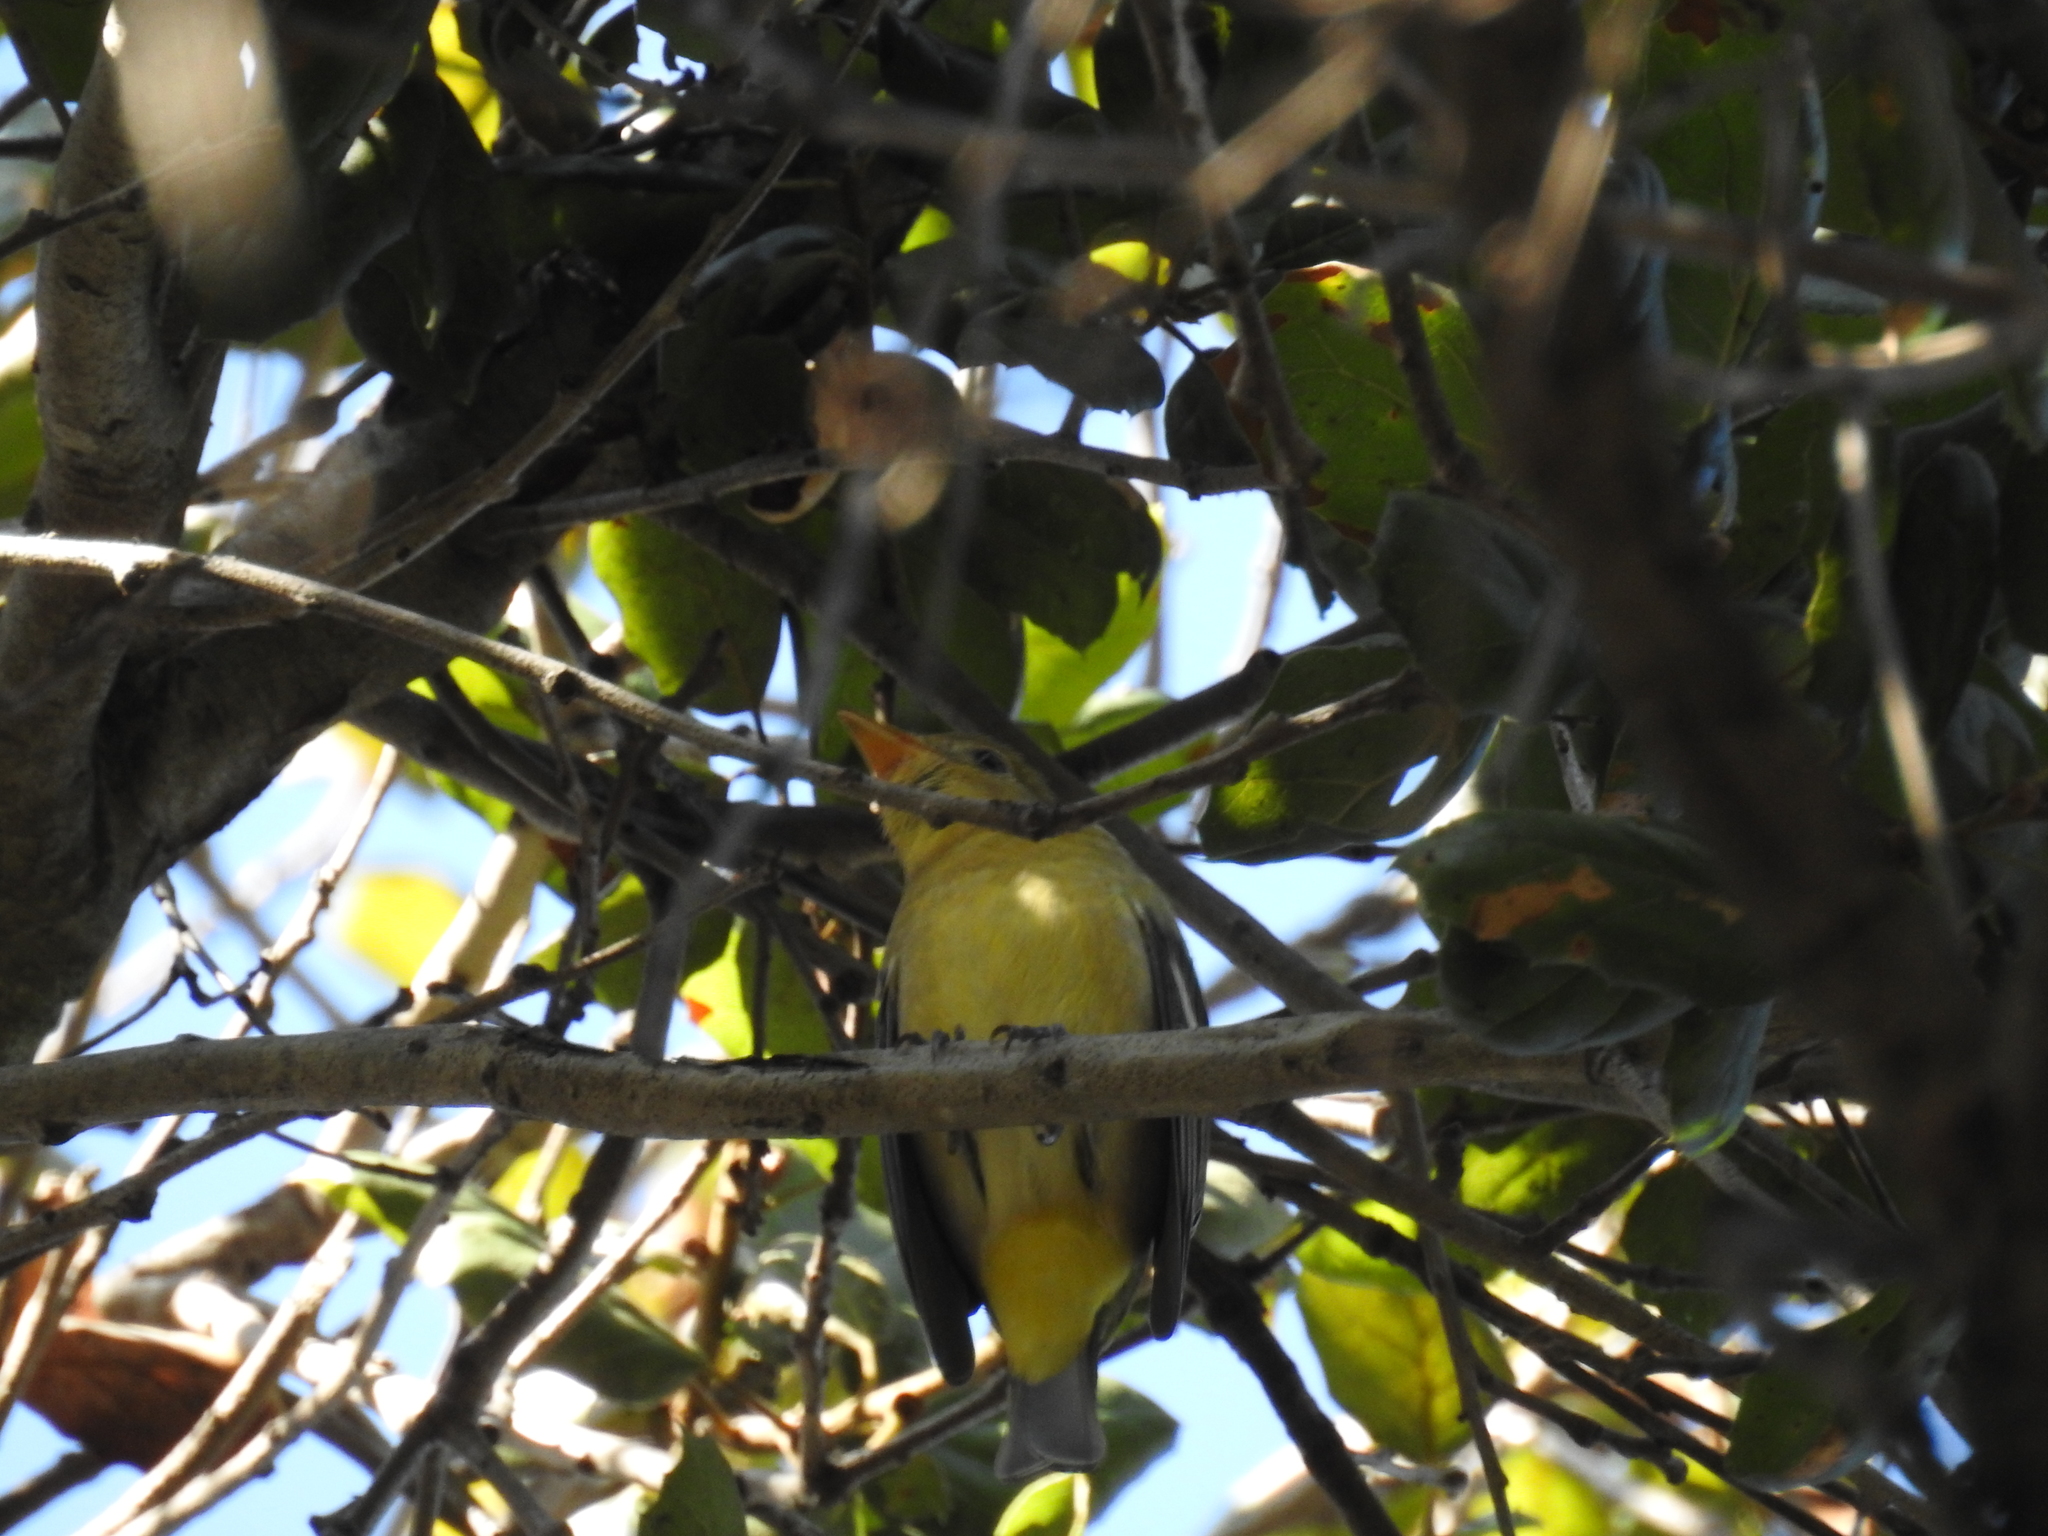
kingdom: Animalia
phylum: Chordata
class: Aves
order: Passeriformes
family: Cardinalidae
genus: Piranga
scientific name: Piranga ludoviciana
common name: Western tanager
